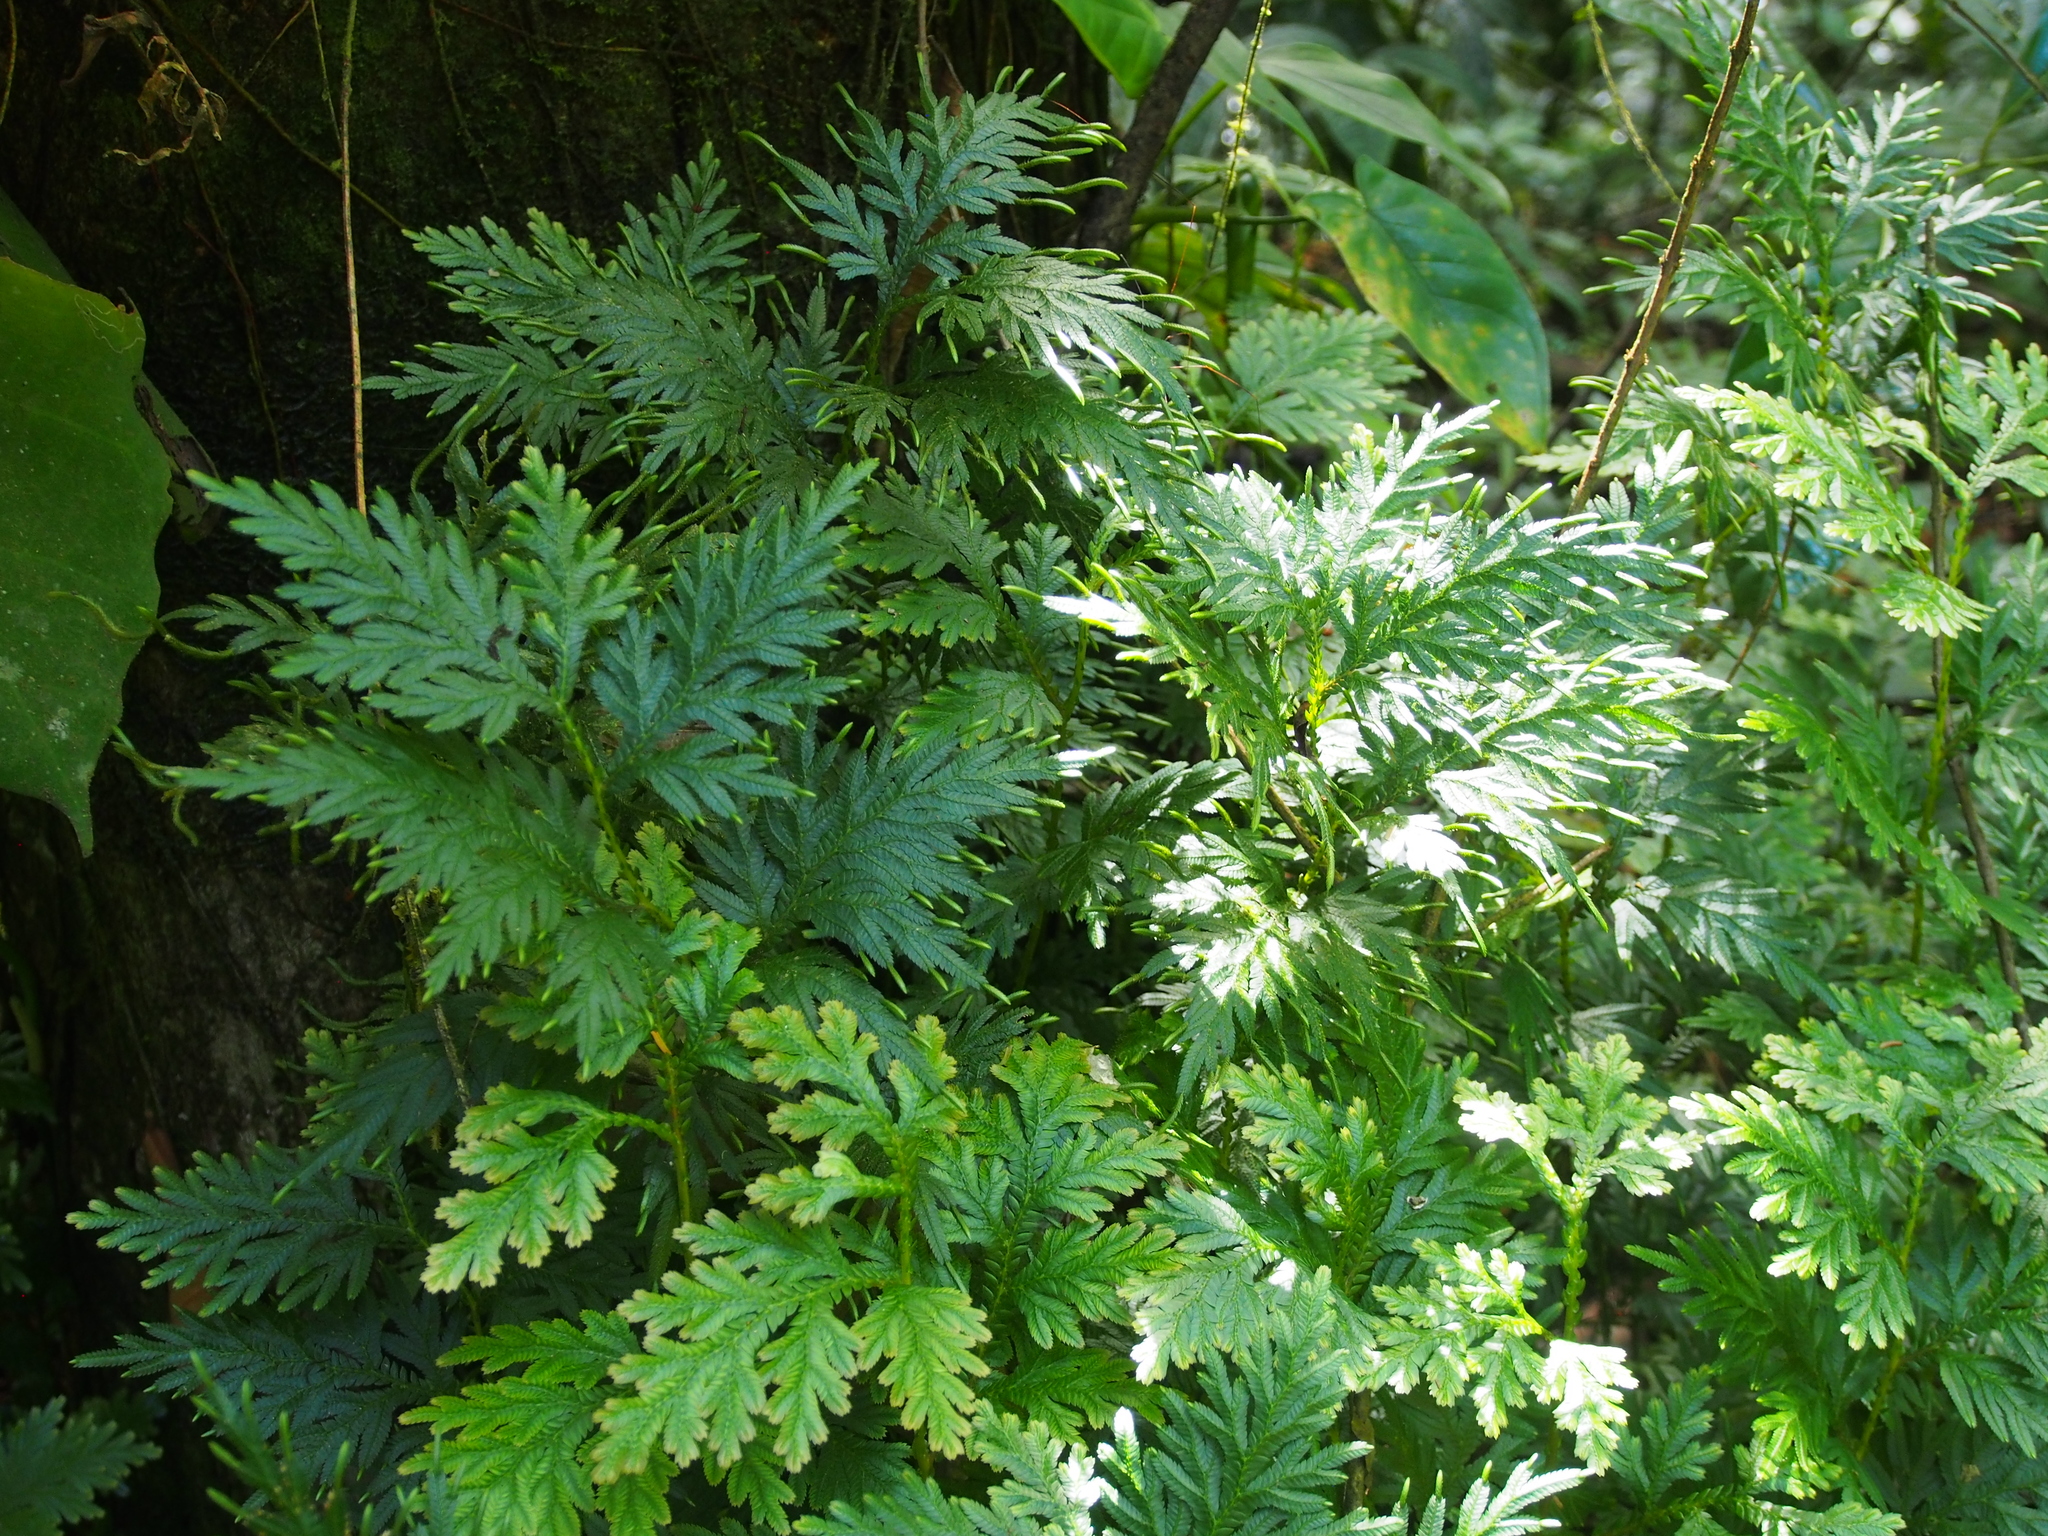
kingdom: Plantae
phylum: Tracheophyta
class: Lycopodiopsida
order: Selaginellales
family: Selaginellaceae
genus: Selaginella
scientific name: Selaginella plana
